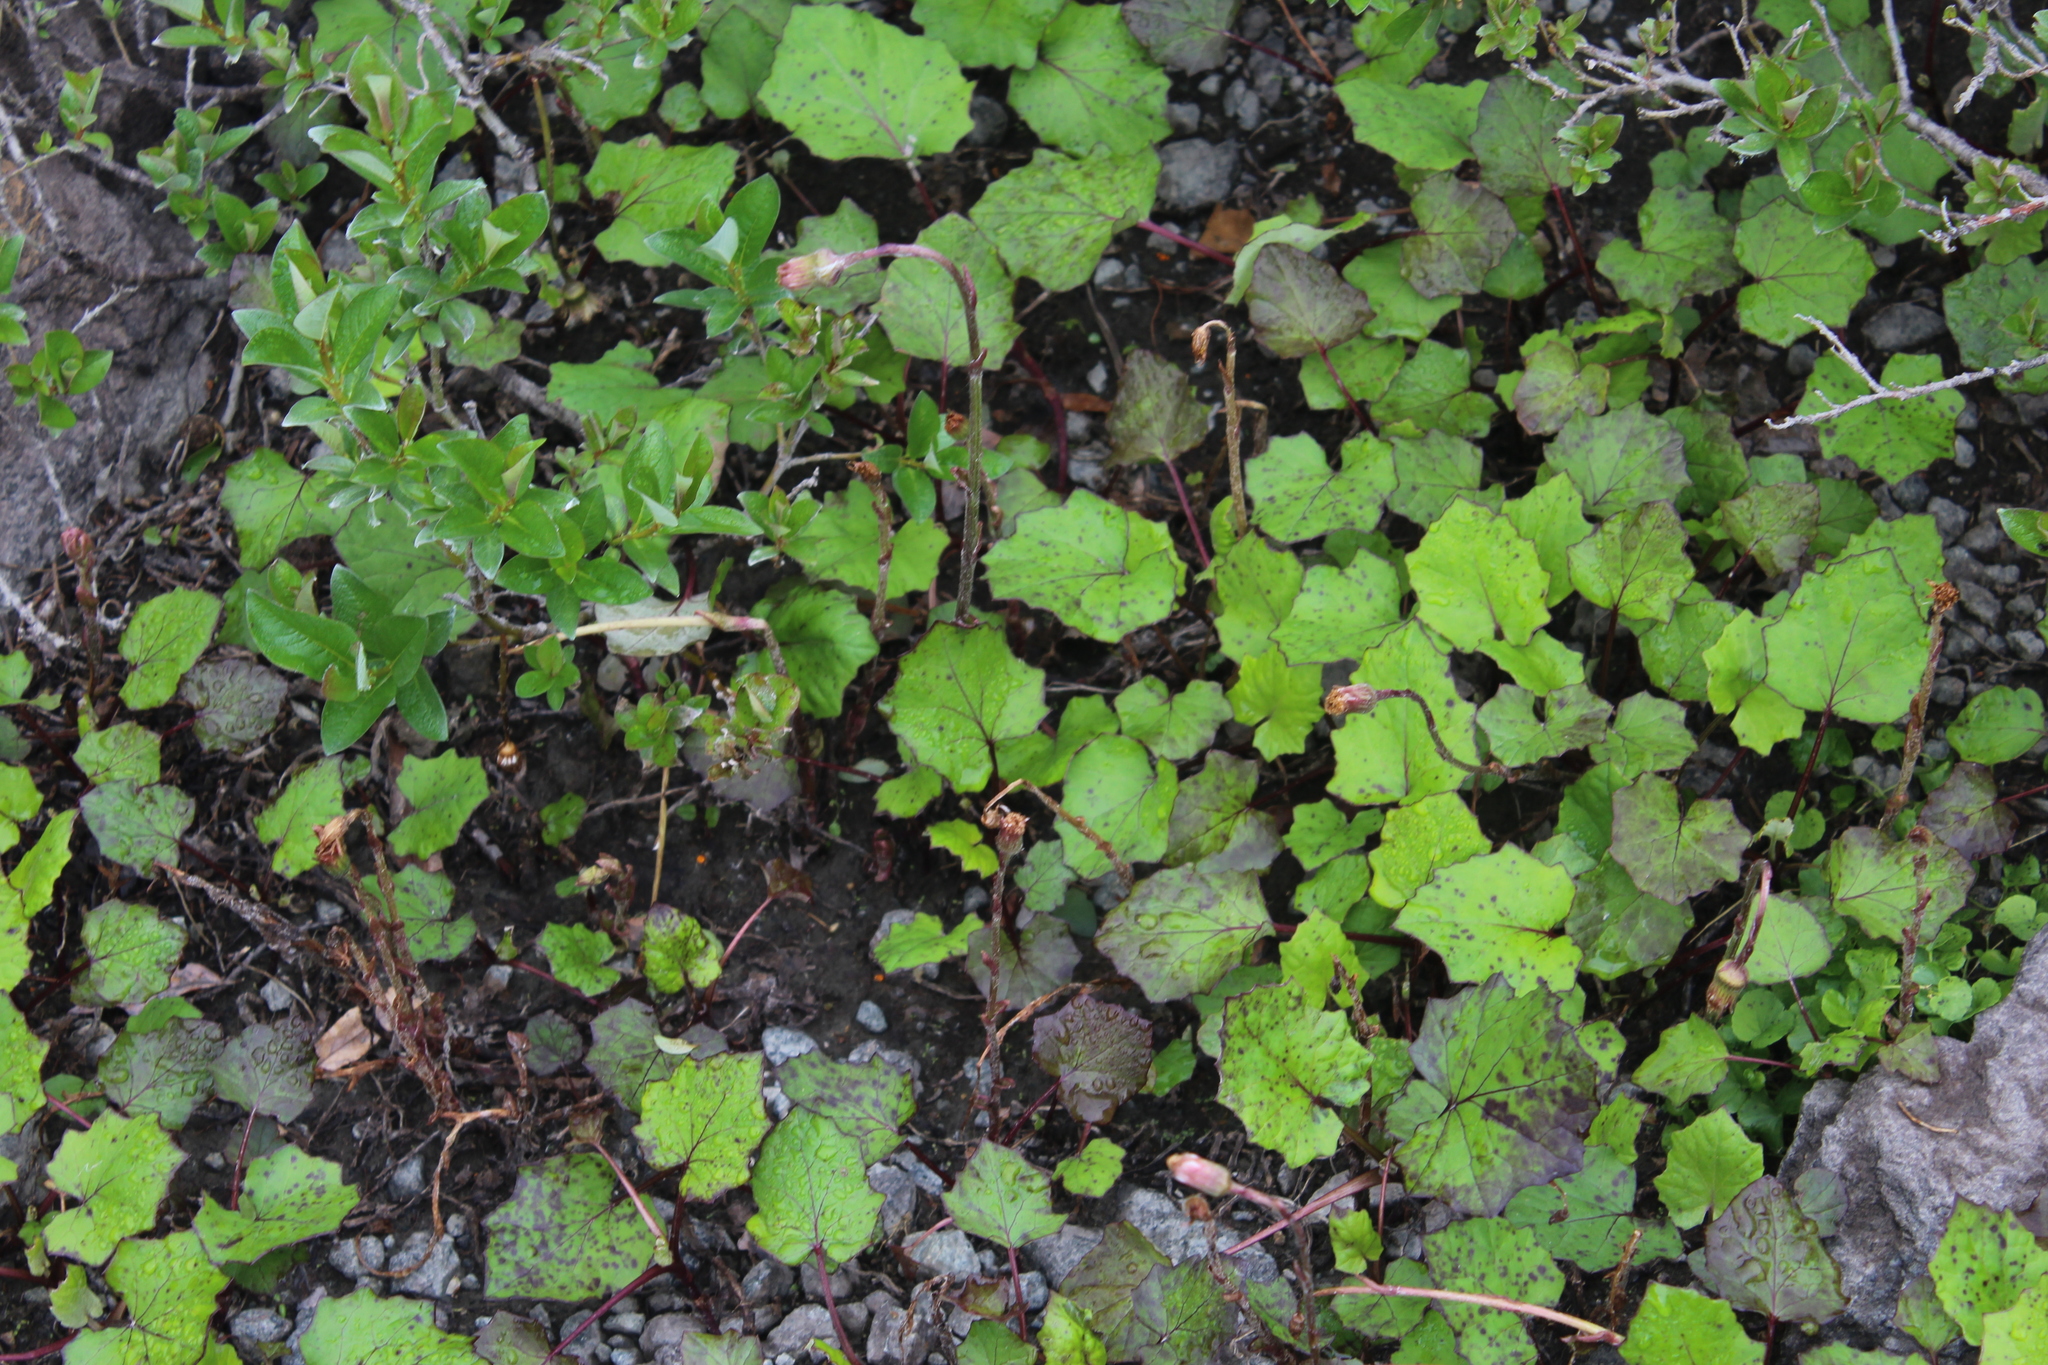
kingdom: Plantae
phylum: Tracheophyta
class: Magnoliopsida
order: Asterales
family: Asteraceae
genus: Tussilago
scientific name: Tussilago farfara
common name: Coltsfoot
